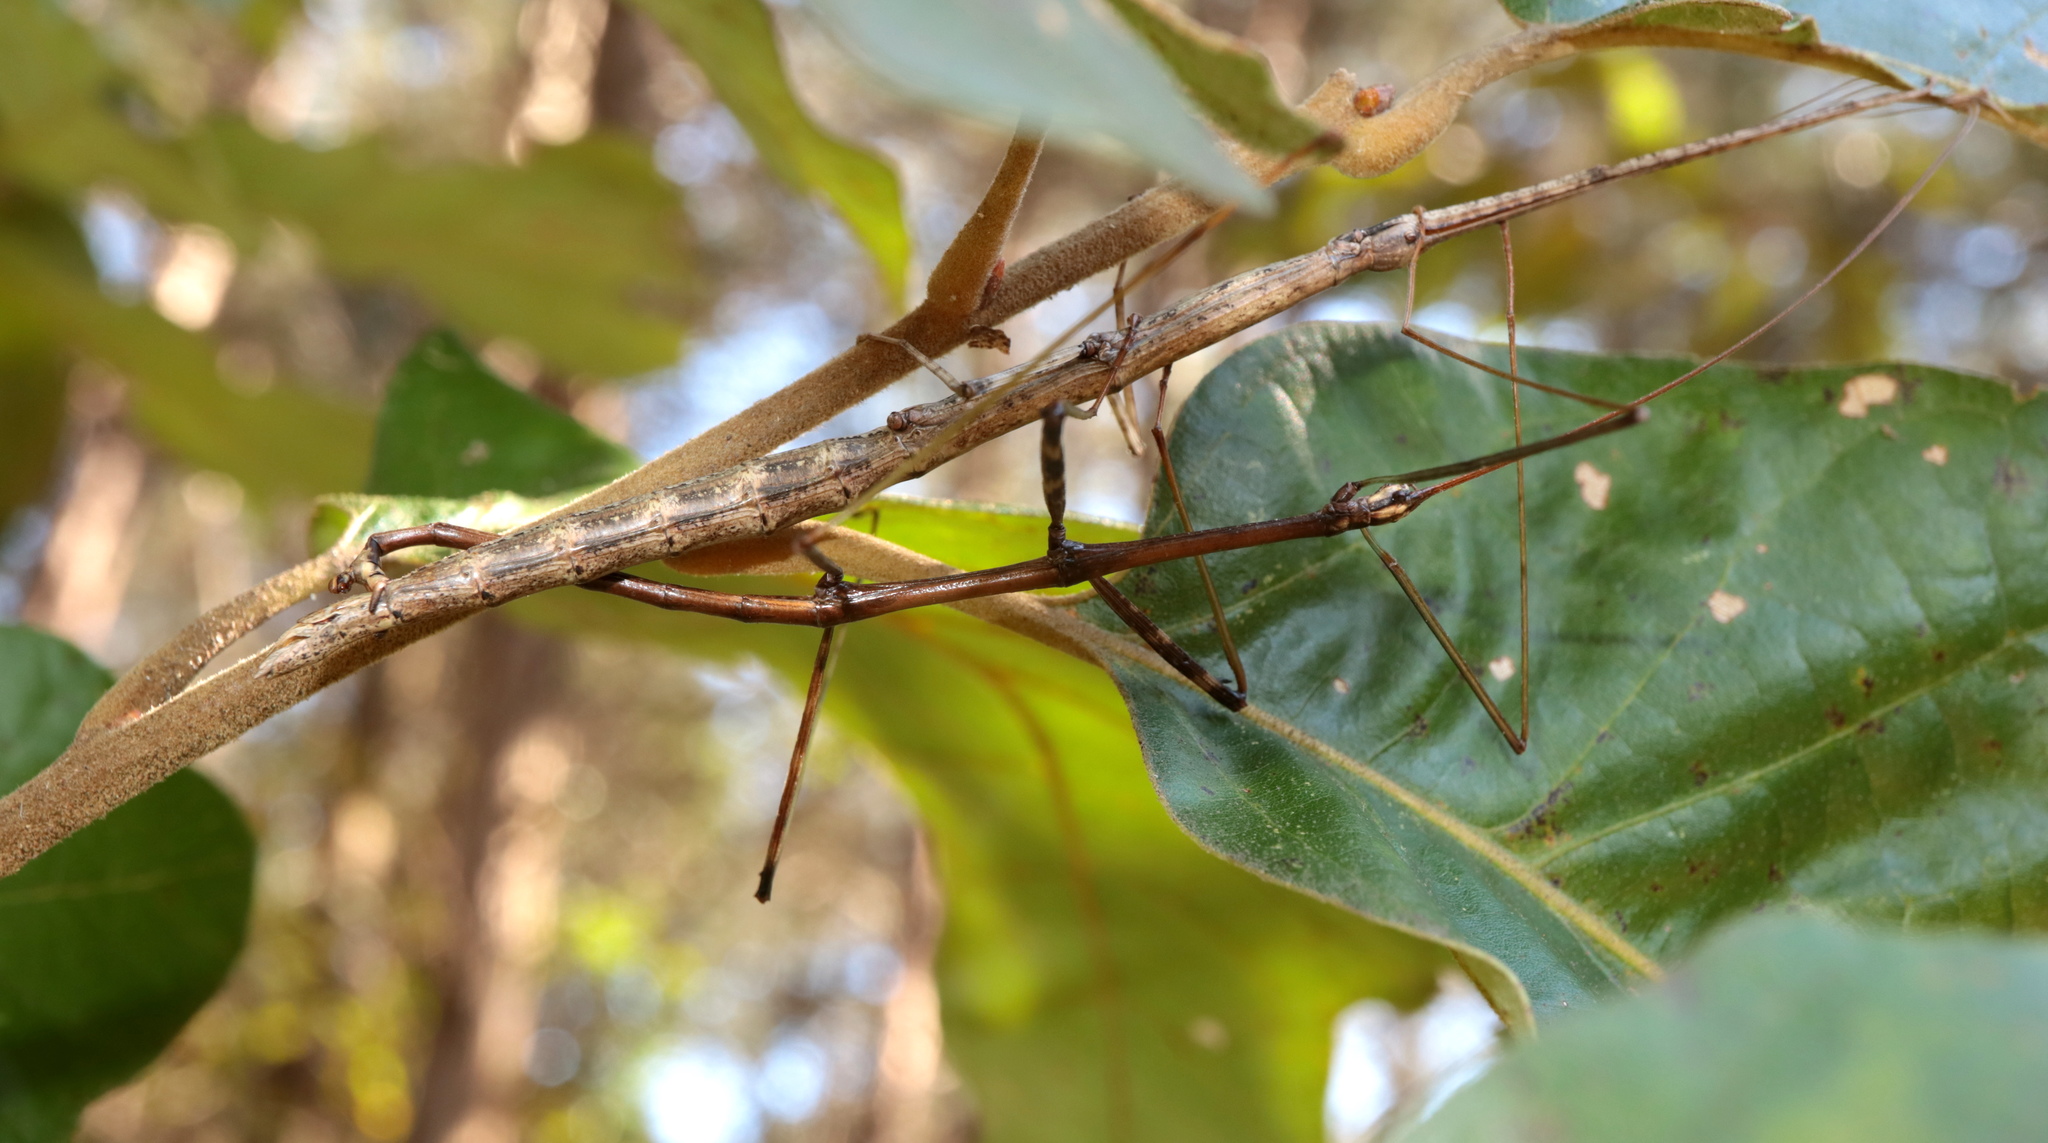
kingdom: Animalia
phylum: Arthropoda
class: Insecta
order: Phasmida
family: Diapheromeridae
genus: Diapheromera
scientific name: Diapheromera femorata
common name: Common american walkingstick
